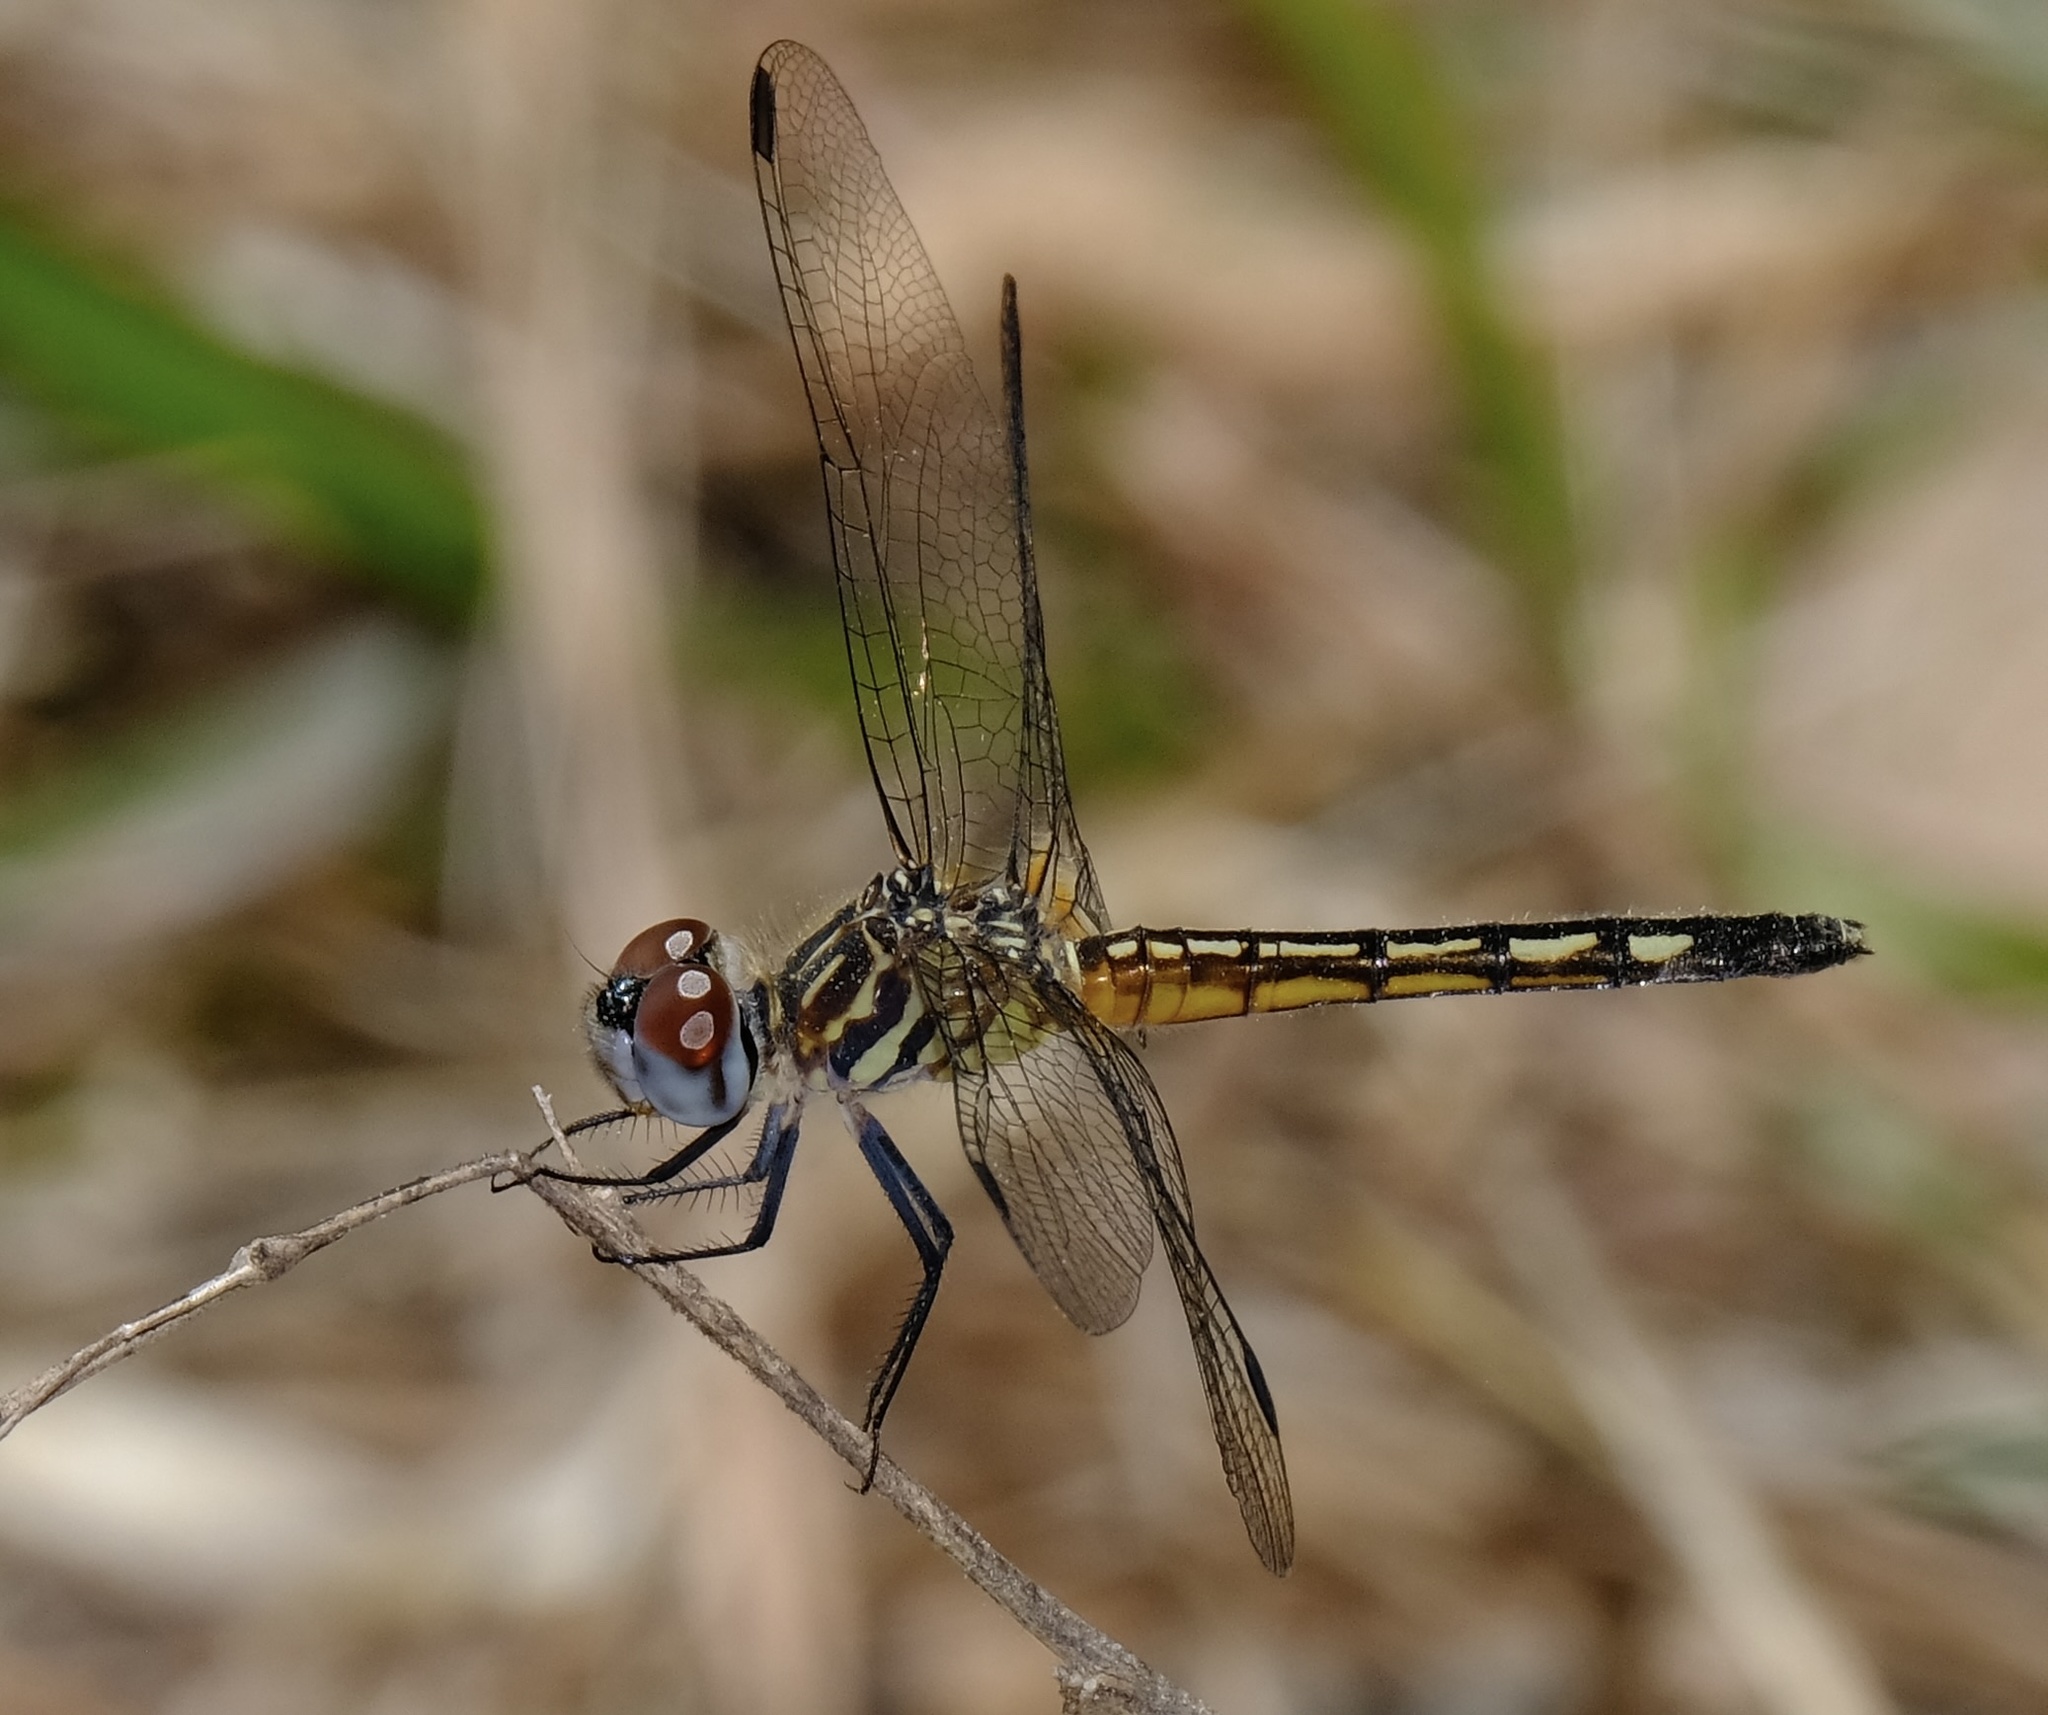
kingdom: Animalia
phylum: Arthropoda
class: Insecta
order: Odonata
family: Libellulidae
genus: Pachydiplax
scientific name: Pachydiplax longipennis
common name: Blue dasher
